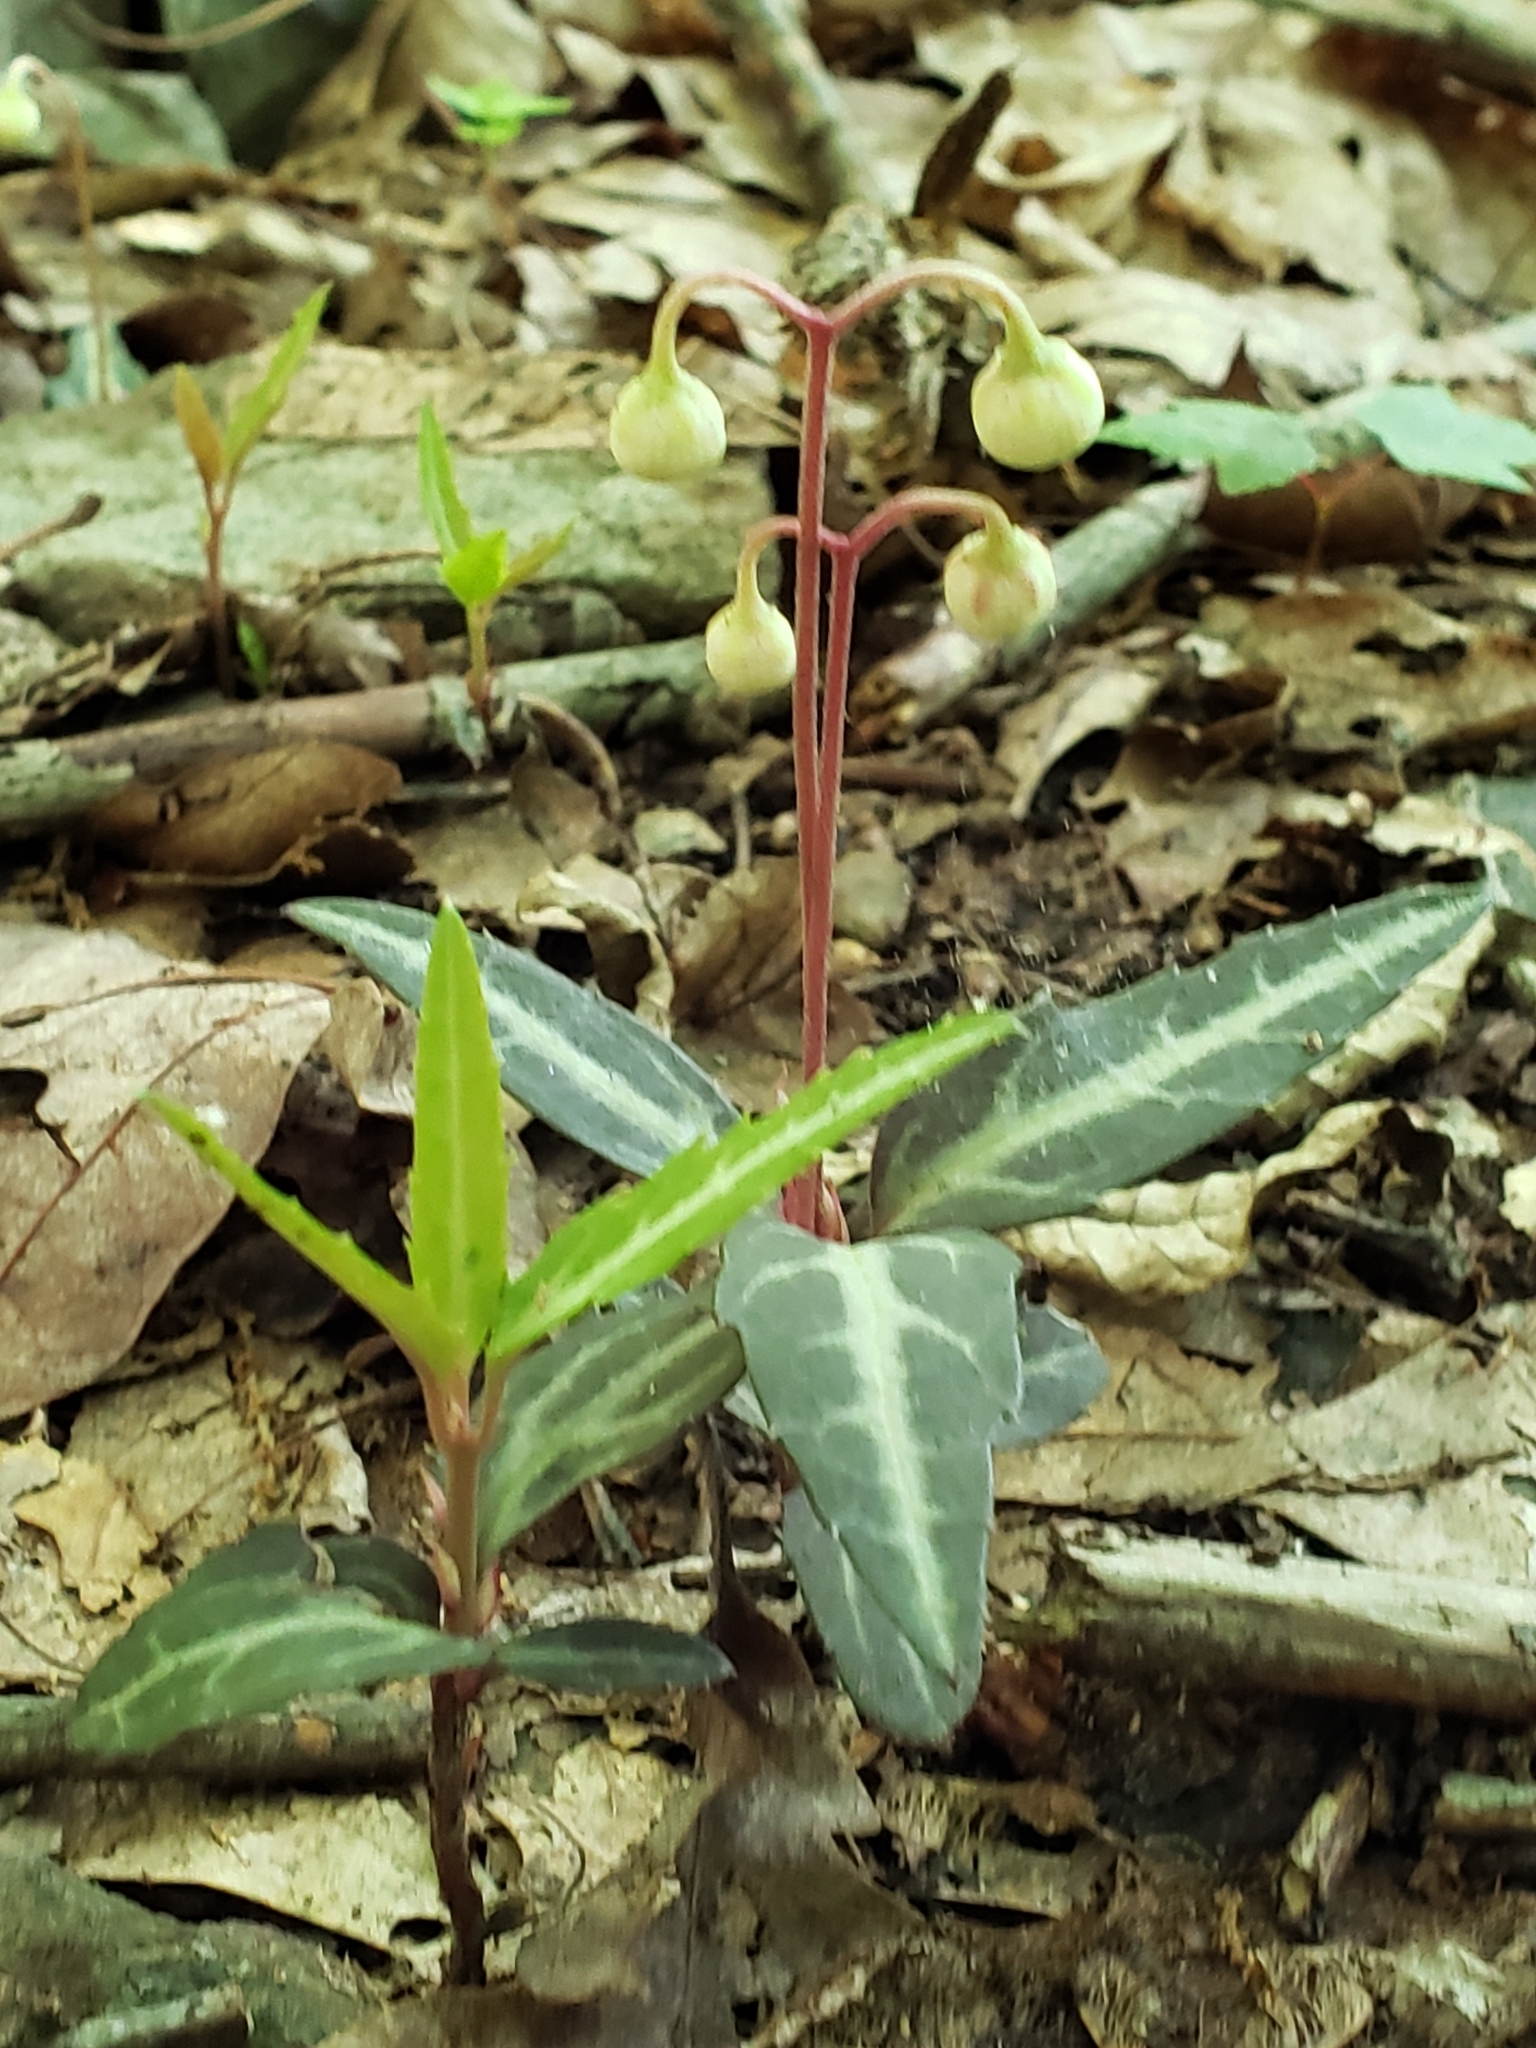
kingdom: Plantae
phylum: Tracheophyta
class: Magnoliopsida
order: Ericales
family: Ericaceae
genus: Chimaphila
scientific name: Chimaphila maculata
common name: Spotted pipsissewa
